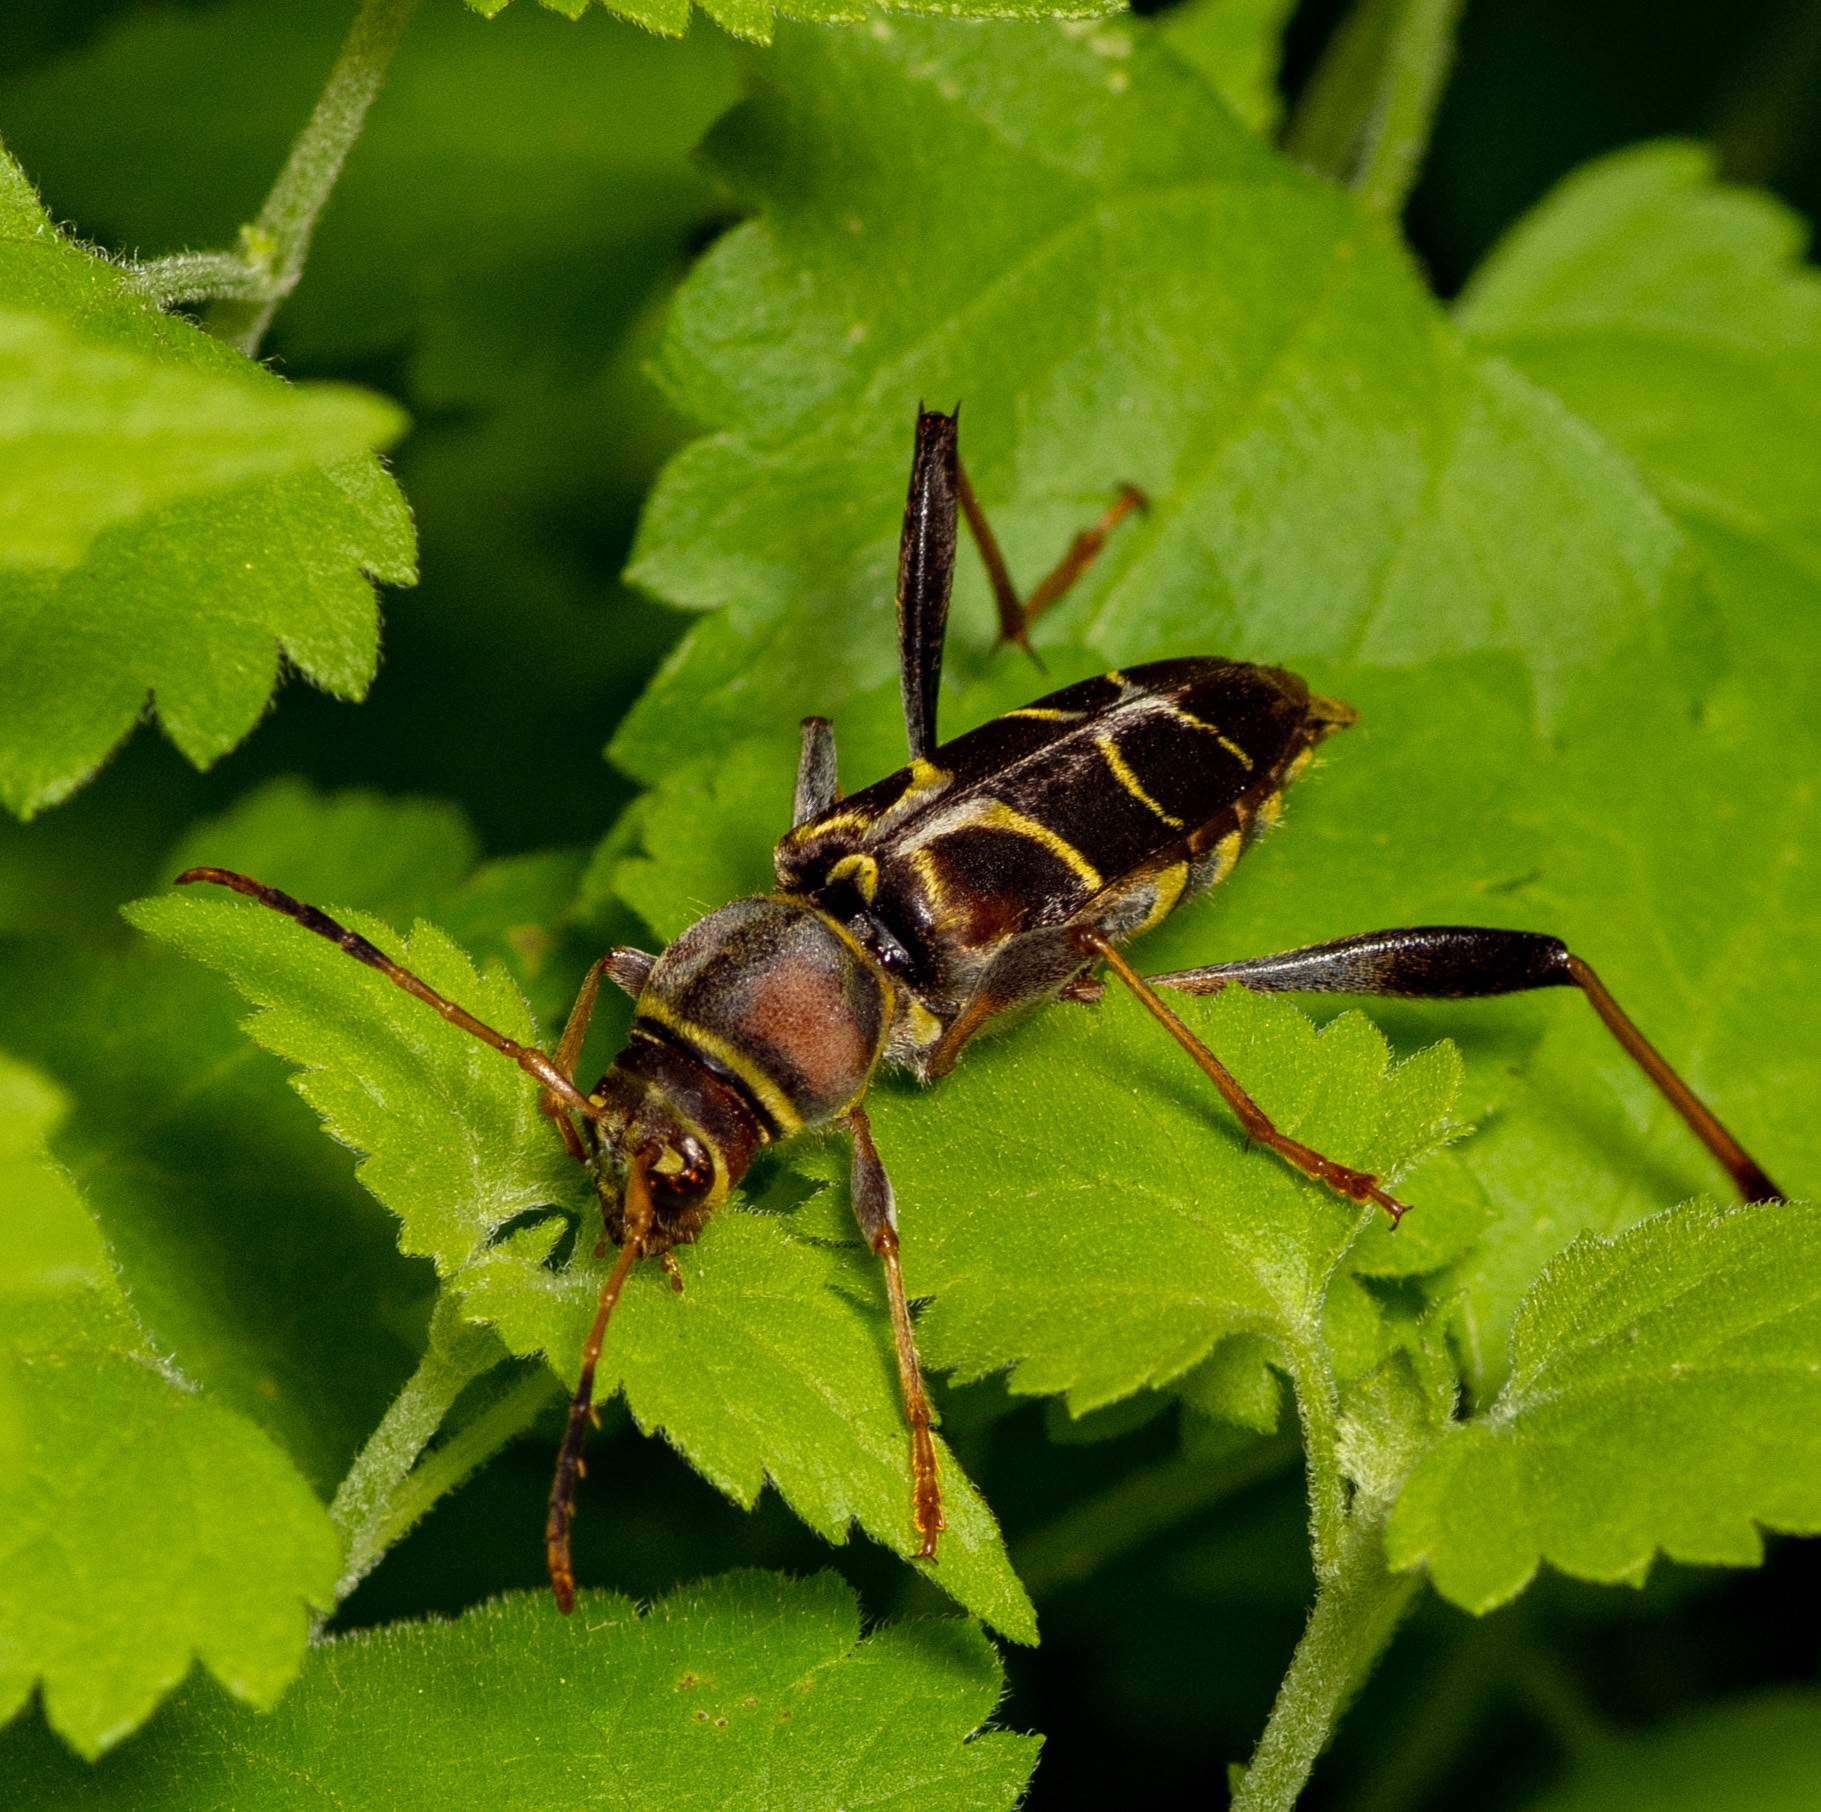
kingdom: Animalia
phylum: Arthropoda
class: Insecta
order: Coleoptera
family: Cerambycidae
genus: Neoclytus
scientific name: Neoclytus mucronatus
